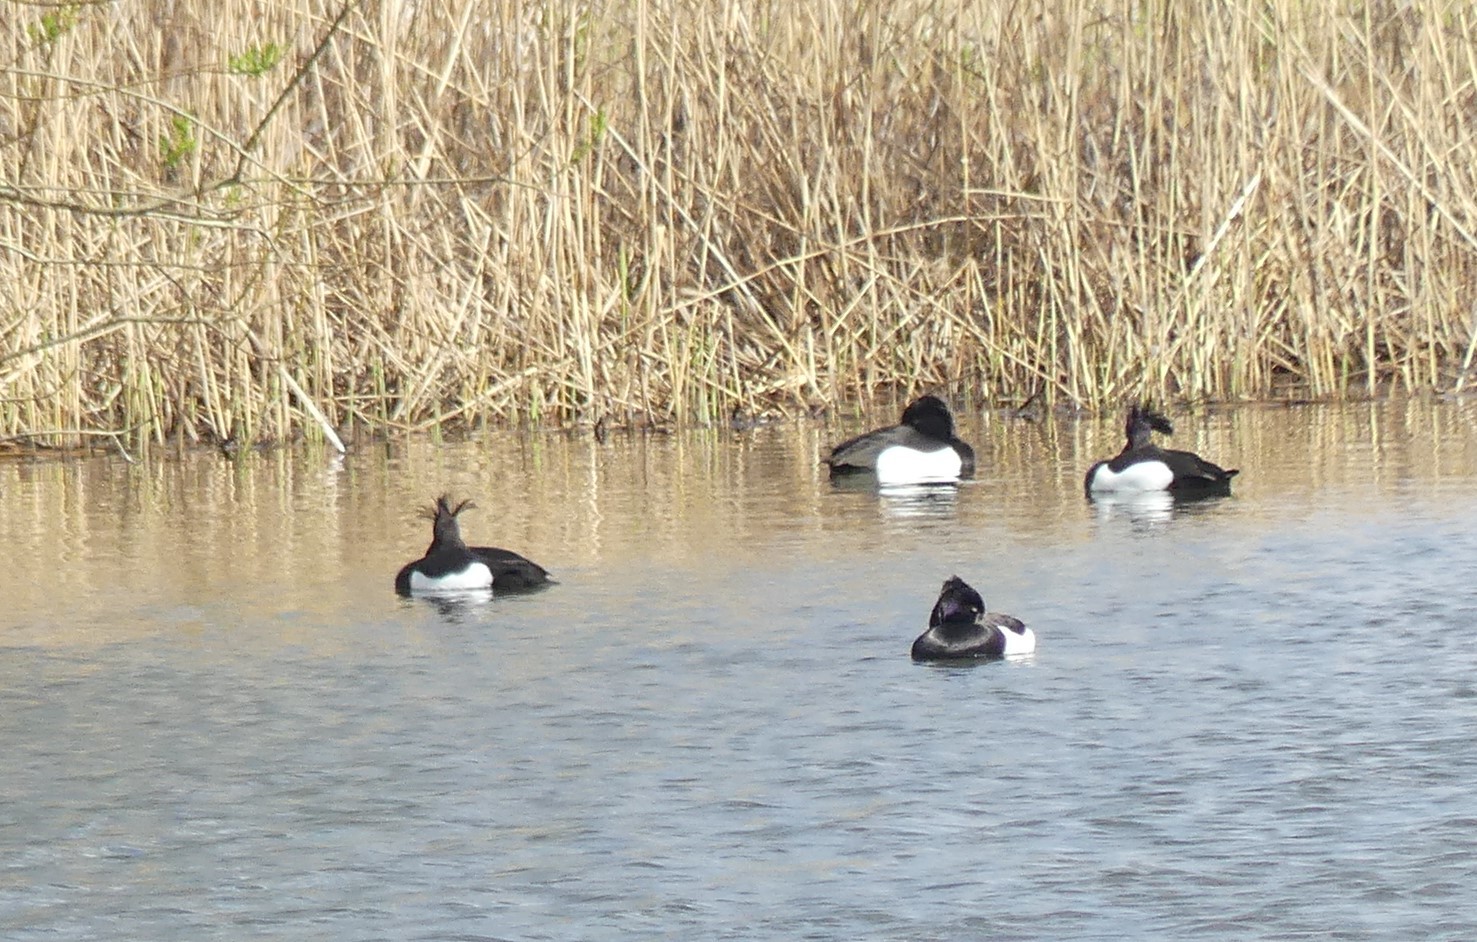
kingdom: Animalia
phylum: Chordata
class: Aves
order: Anseriformes
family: Anatidae
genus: Aythya
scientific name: Aythya fuligula
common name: Tufted duck
